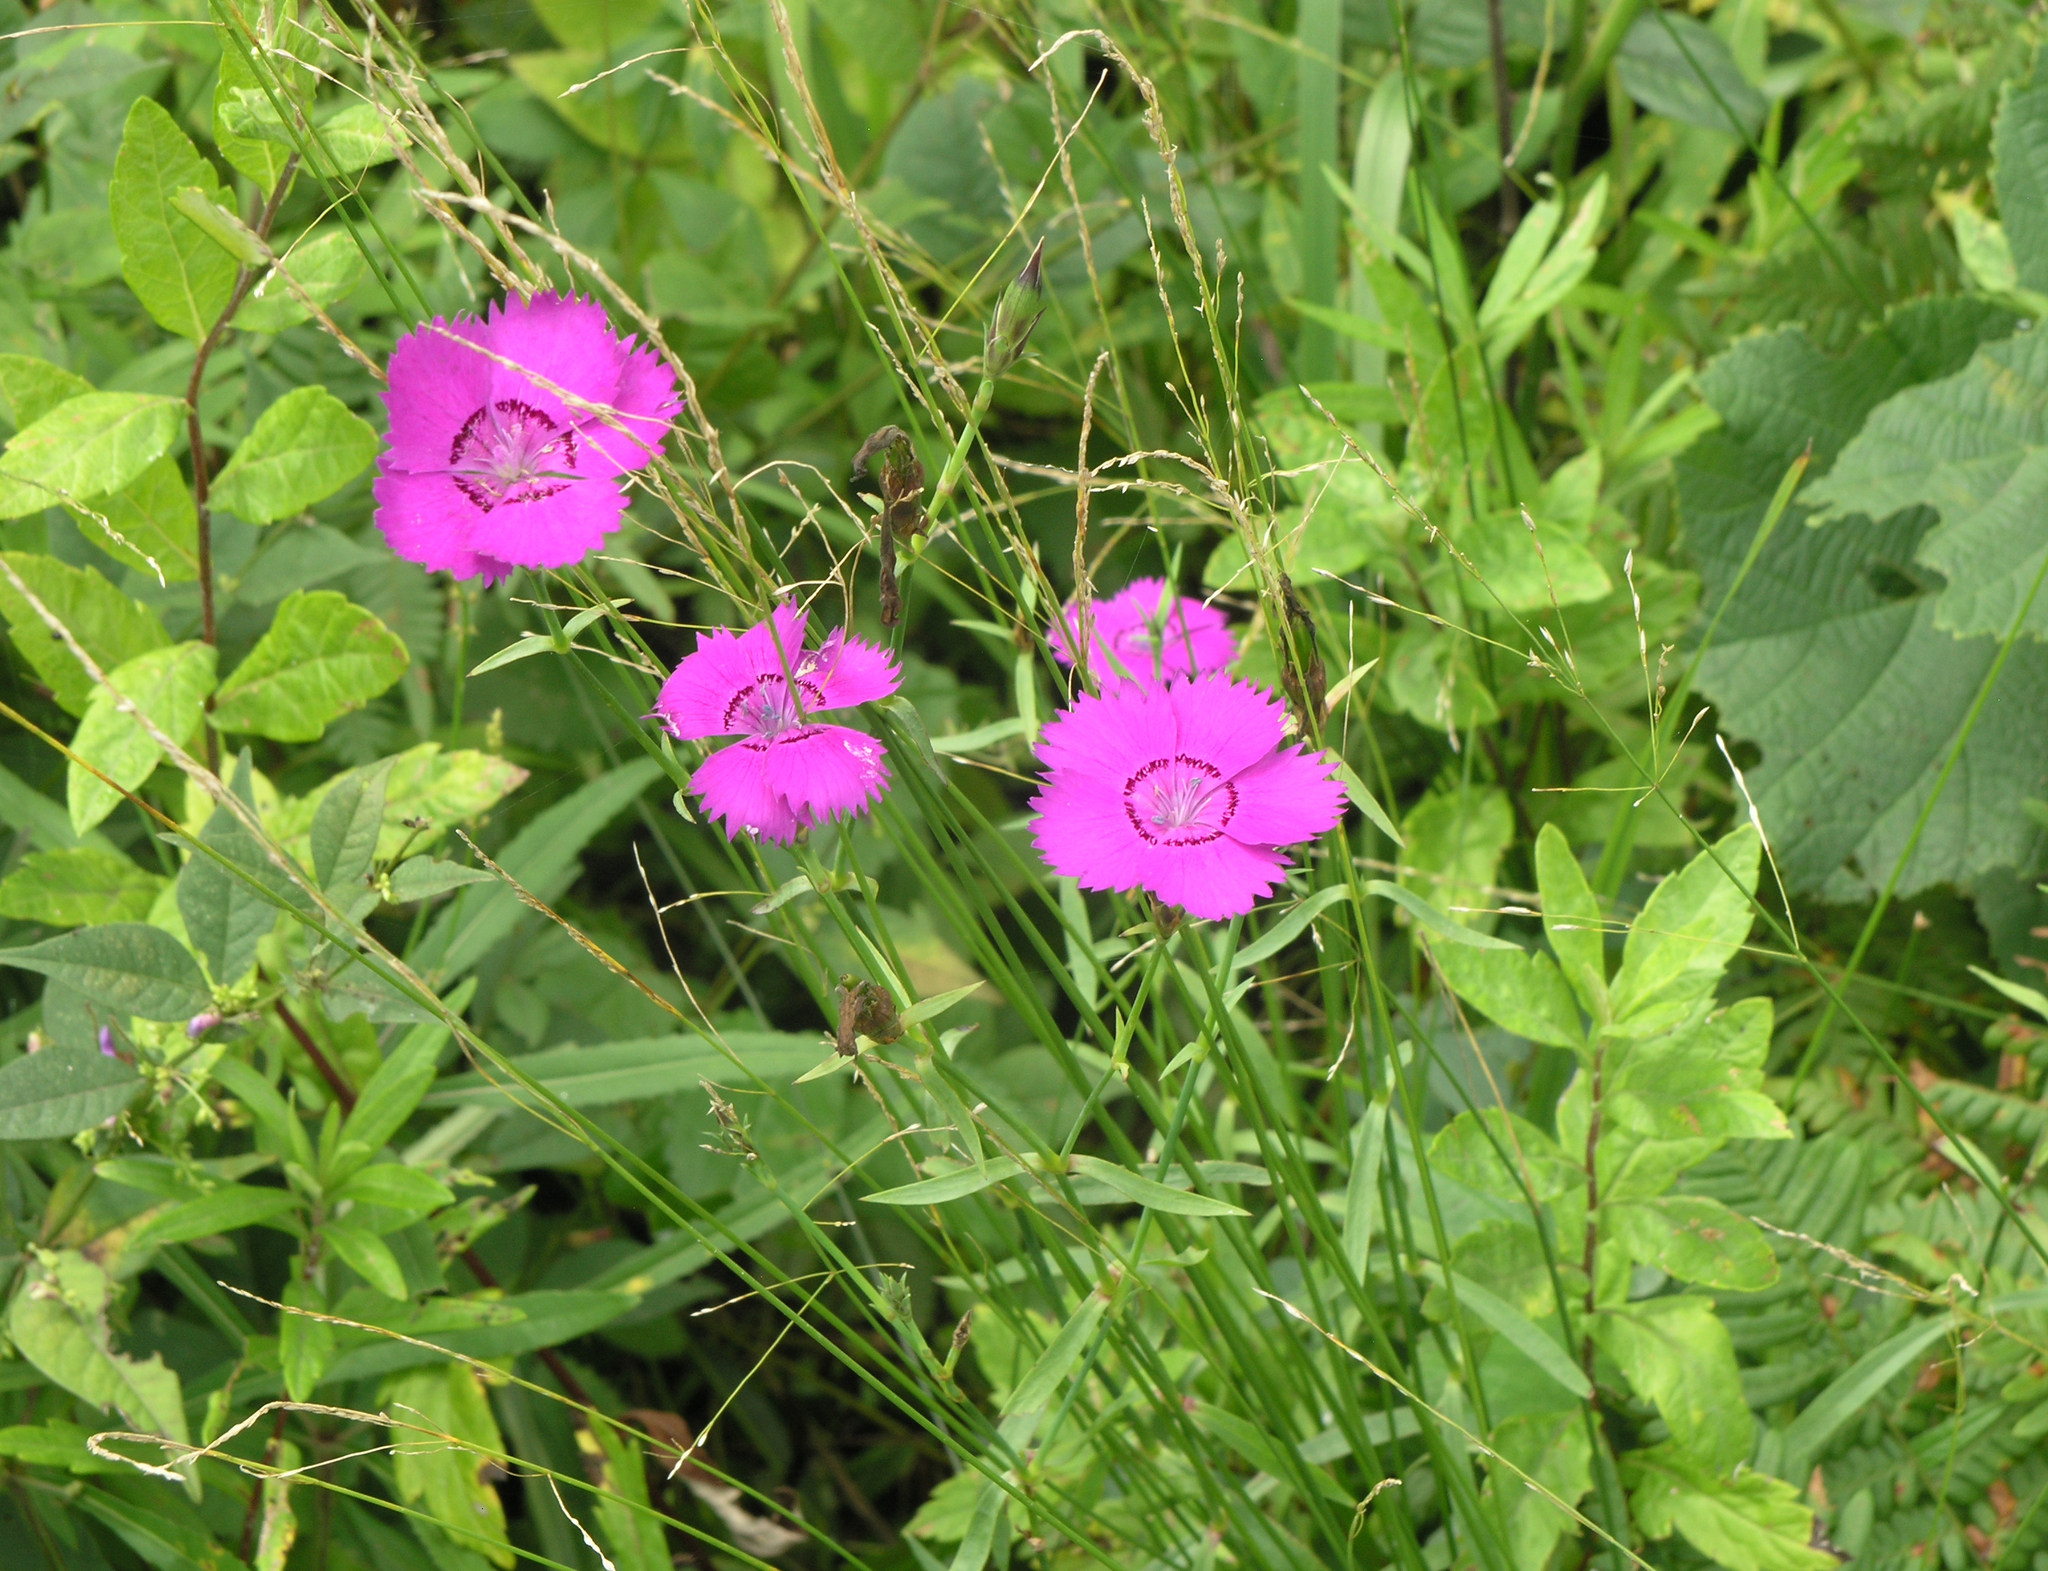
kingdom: Plantae
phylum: Tracheophyta
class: Magnoliopsida
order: Caryophyllales
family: Caryophyllaceae
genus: Dianthus
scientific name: Dianthus chinensis
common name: Rainbow pink
